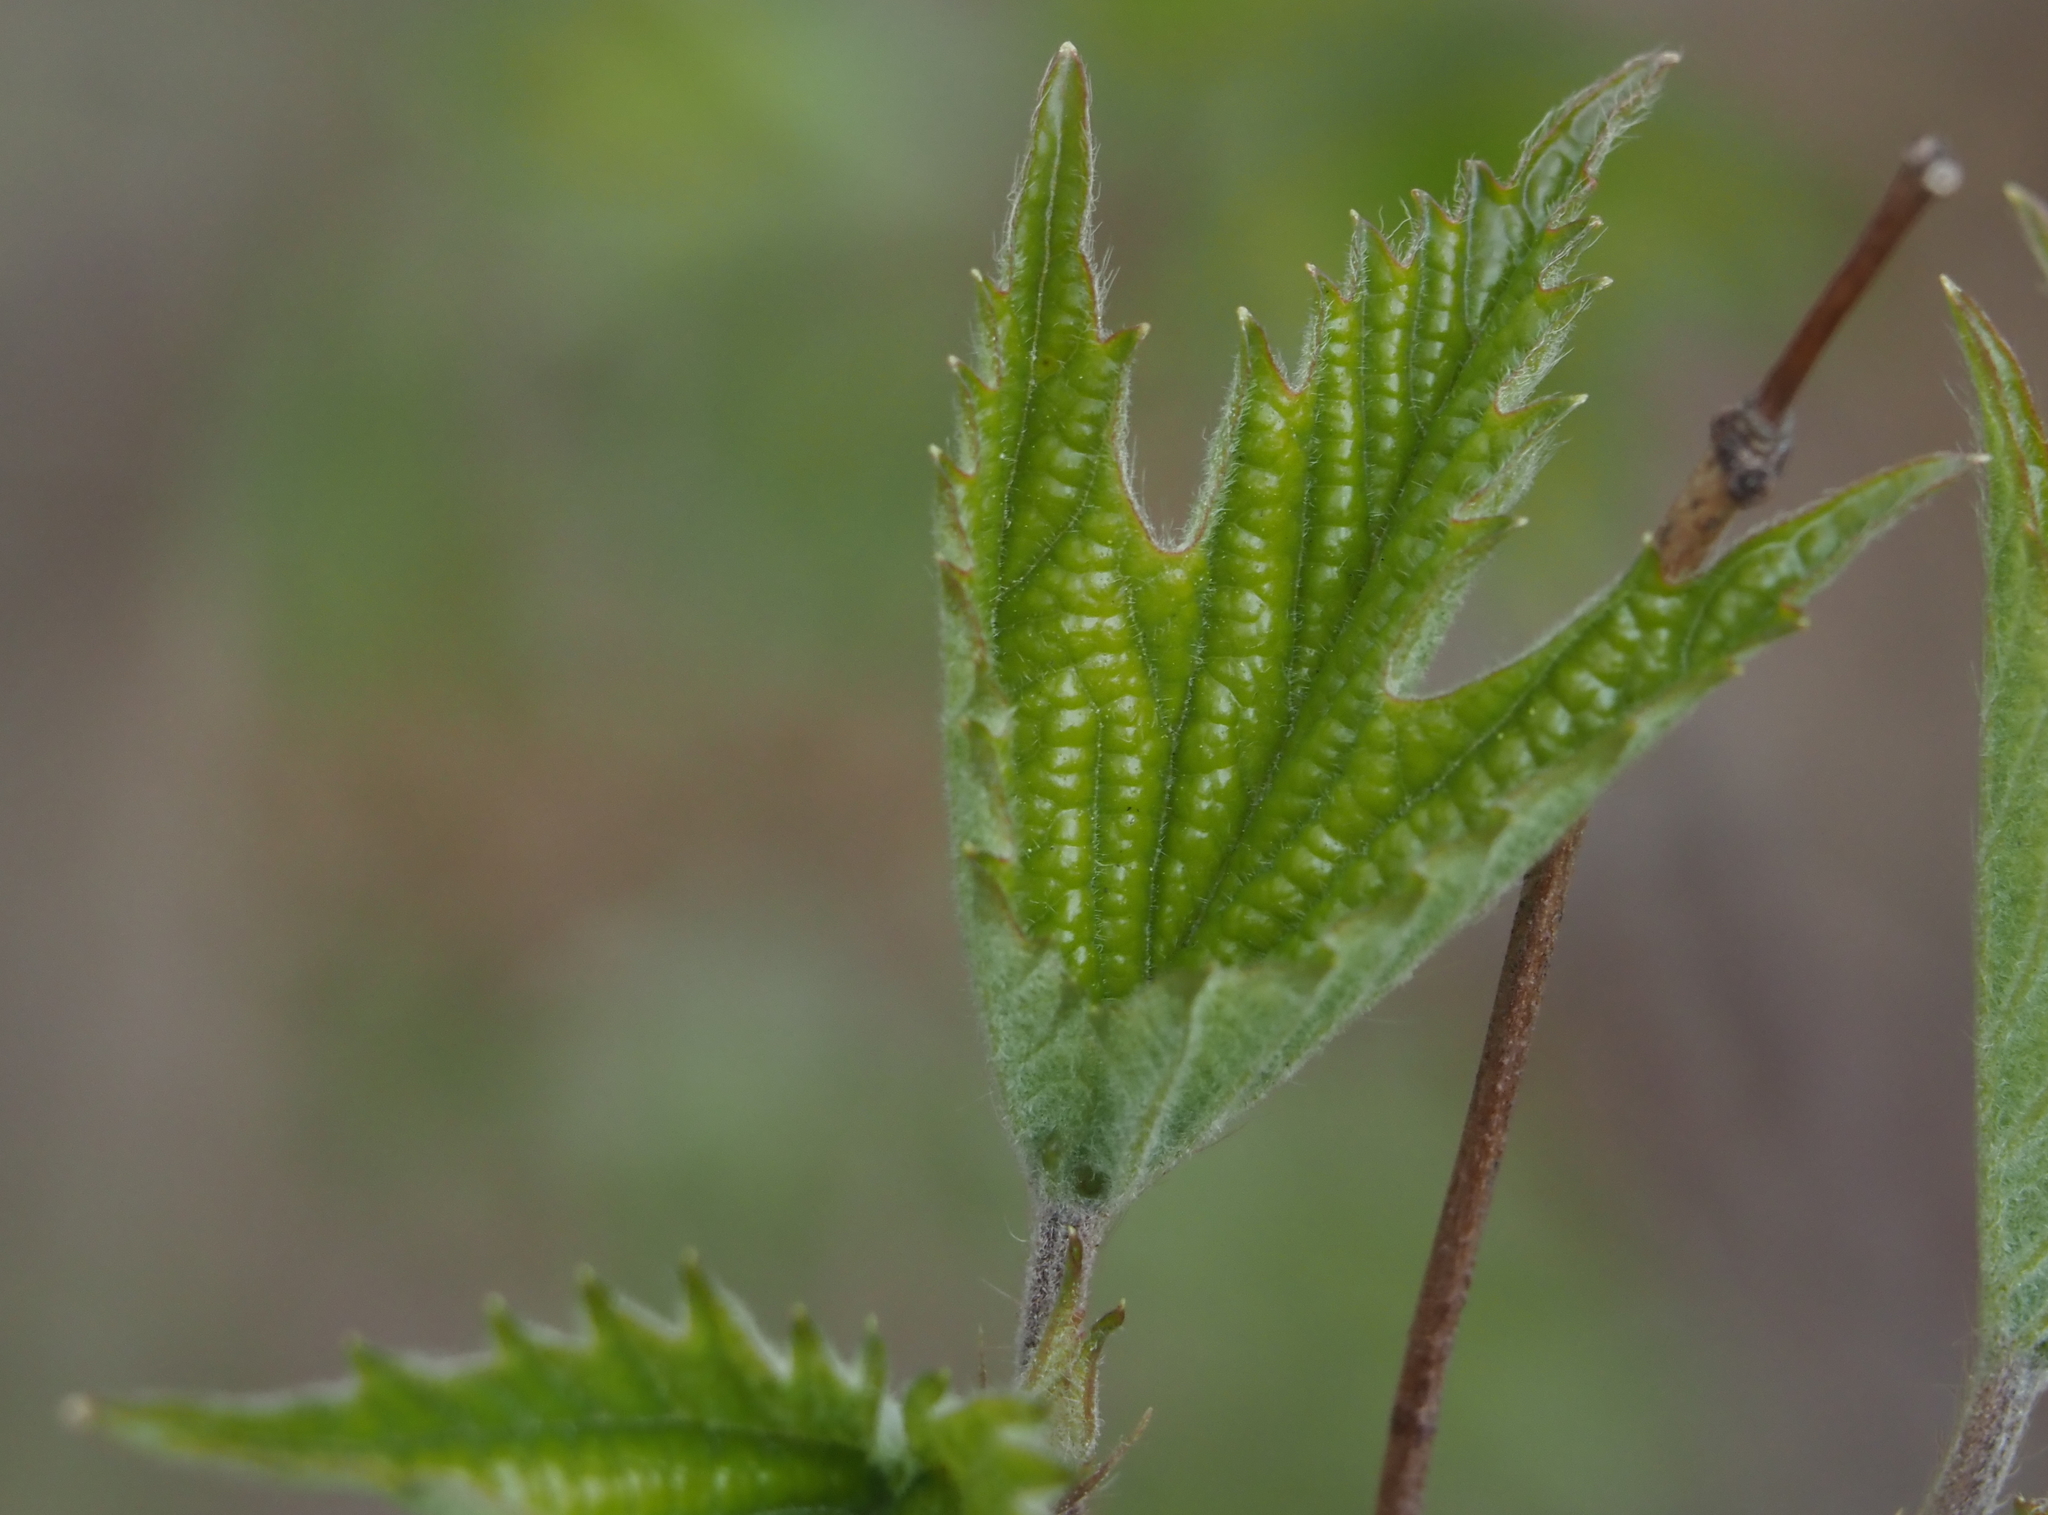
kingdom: Plantae
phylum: Tracheophyta
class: Magnoliopsida
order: Dipsacales
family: Viburnaceae
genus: Viburnum
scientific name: Viburnum acerifolium
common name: Dockmackie
